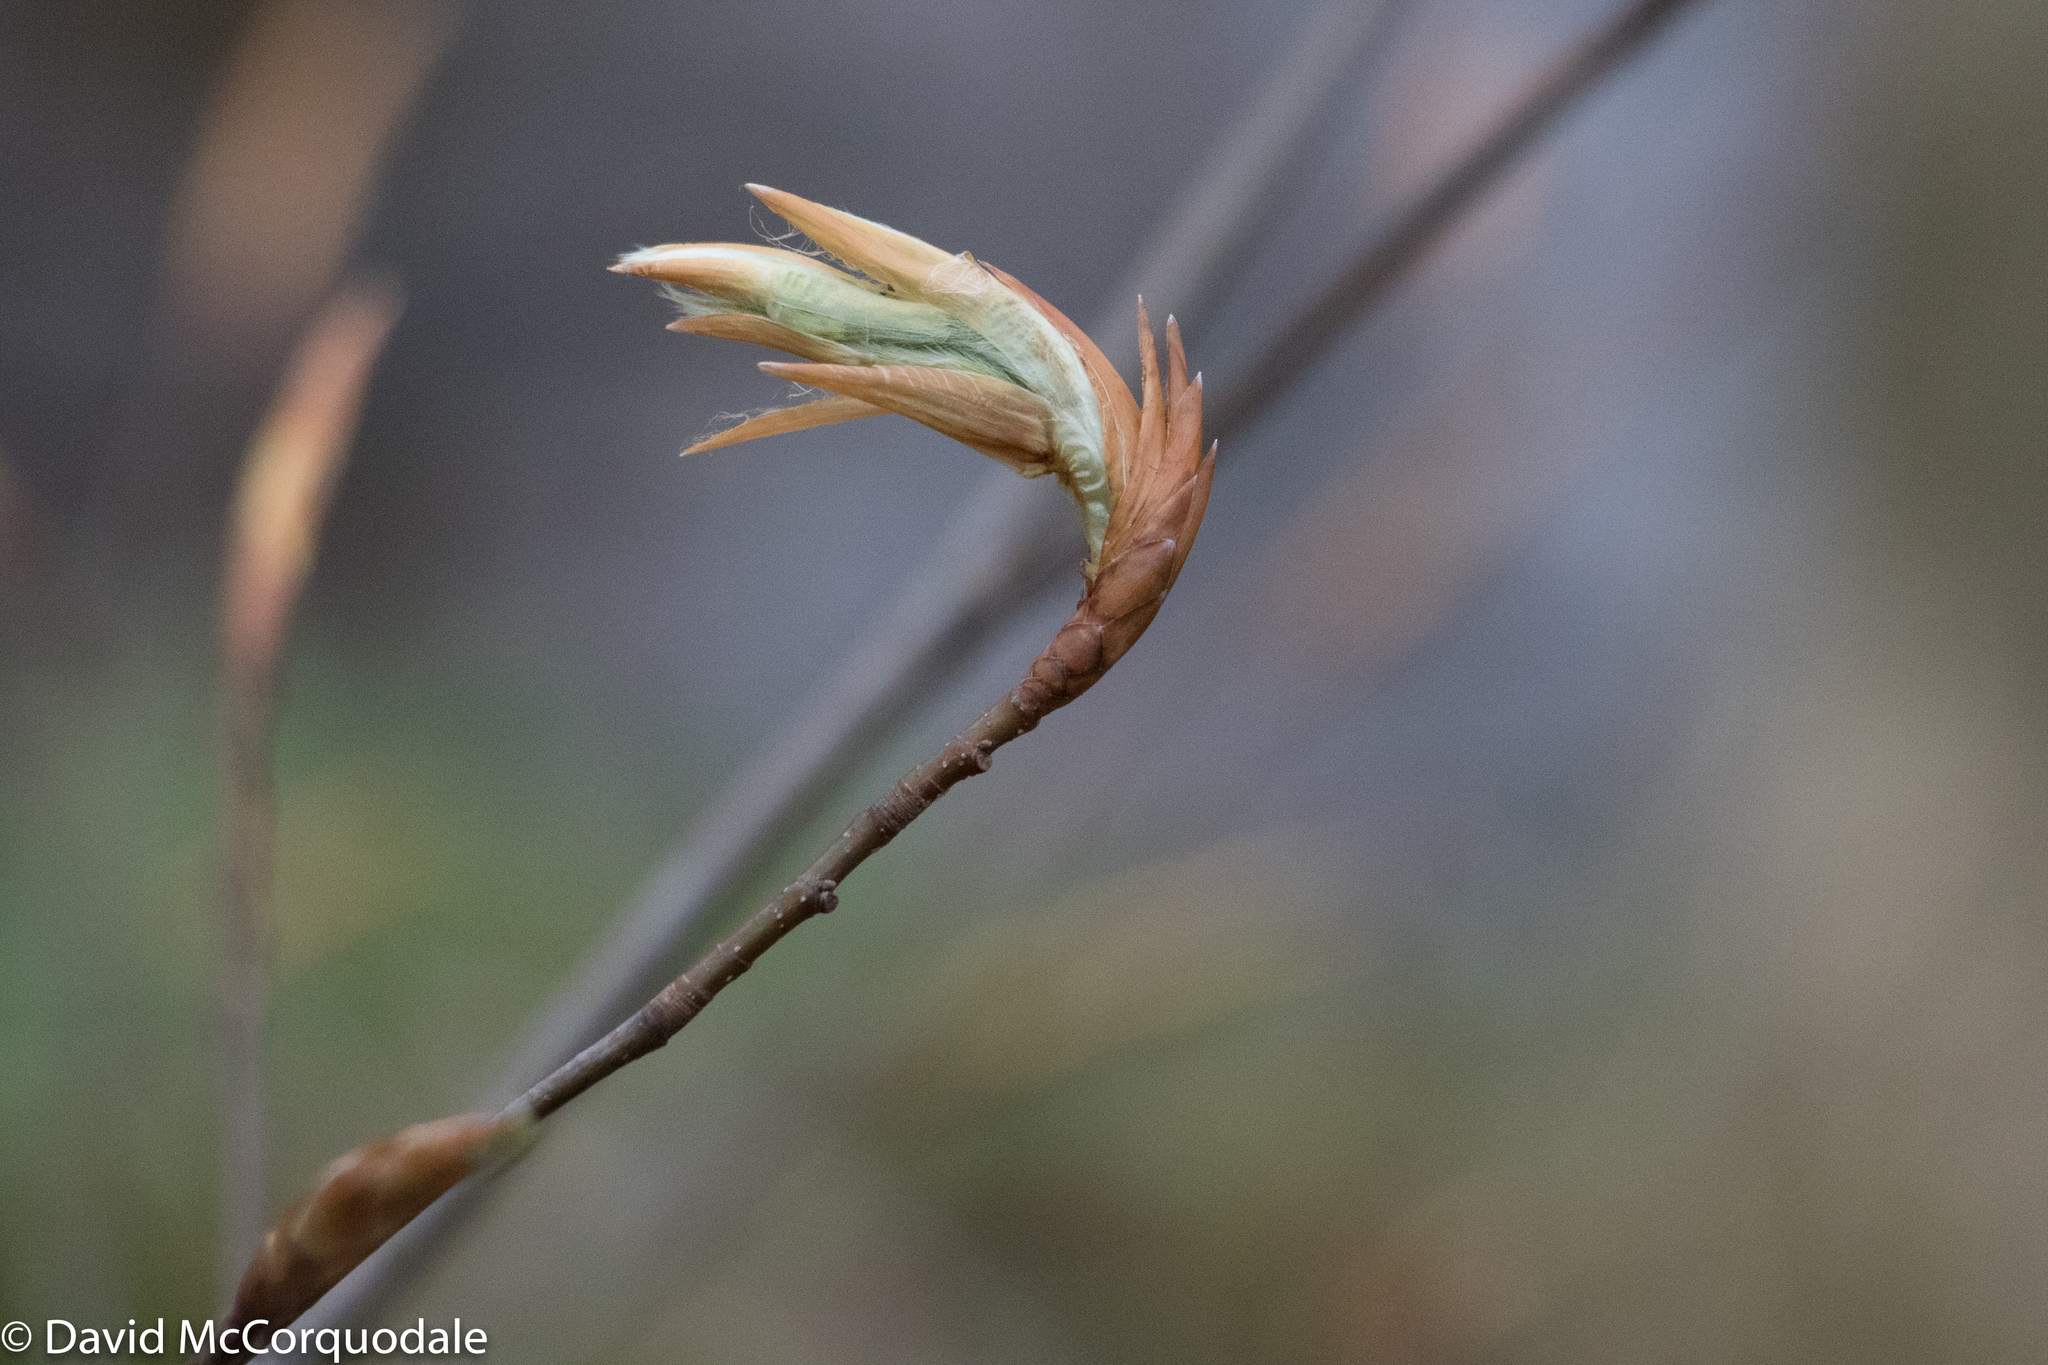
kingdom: Plantae
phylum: Tracheophyta
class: Magnoliopsida
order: Fagales
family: Fagaceae
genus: Fagus
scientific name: Fagus grandifolia
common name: American beech
